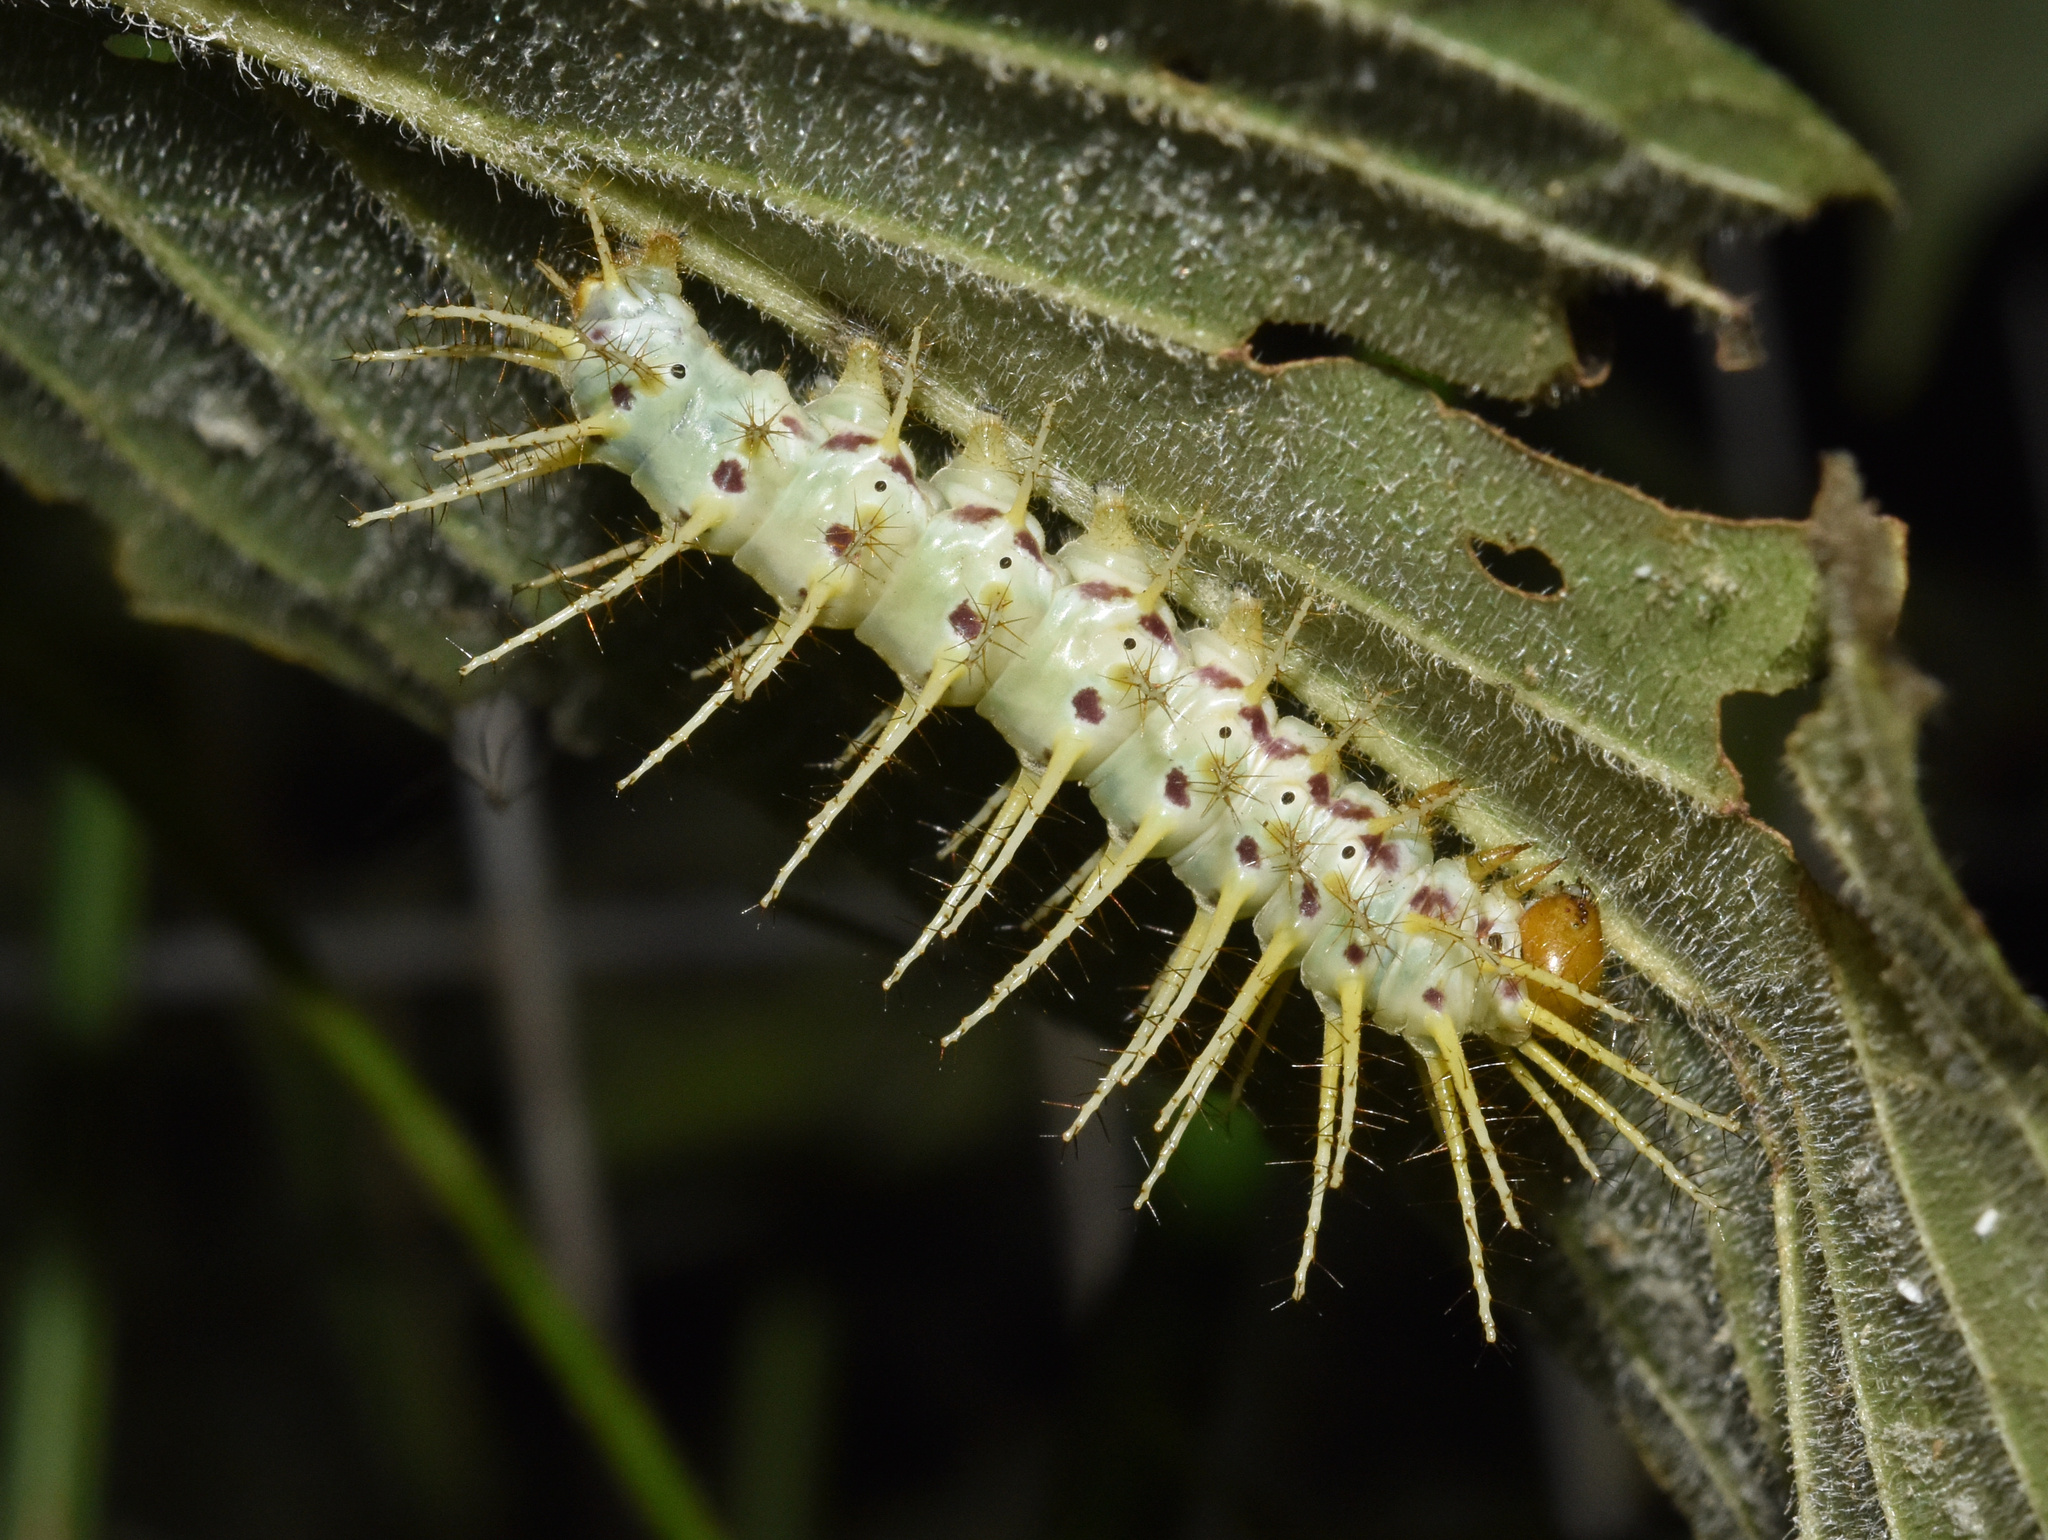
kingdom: Animalia
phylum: Arthropoda
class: Insecta
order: Lepidoptera
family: Nymphalidae
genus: Acraea
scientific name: Acraea Bematistes aganice
